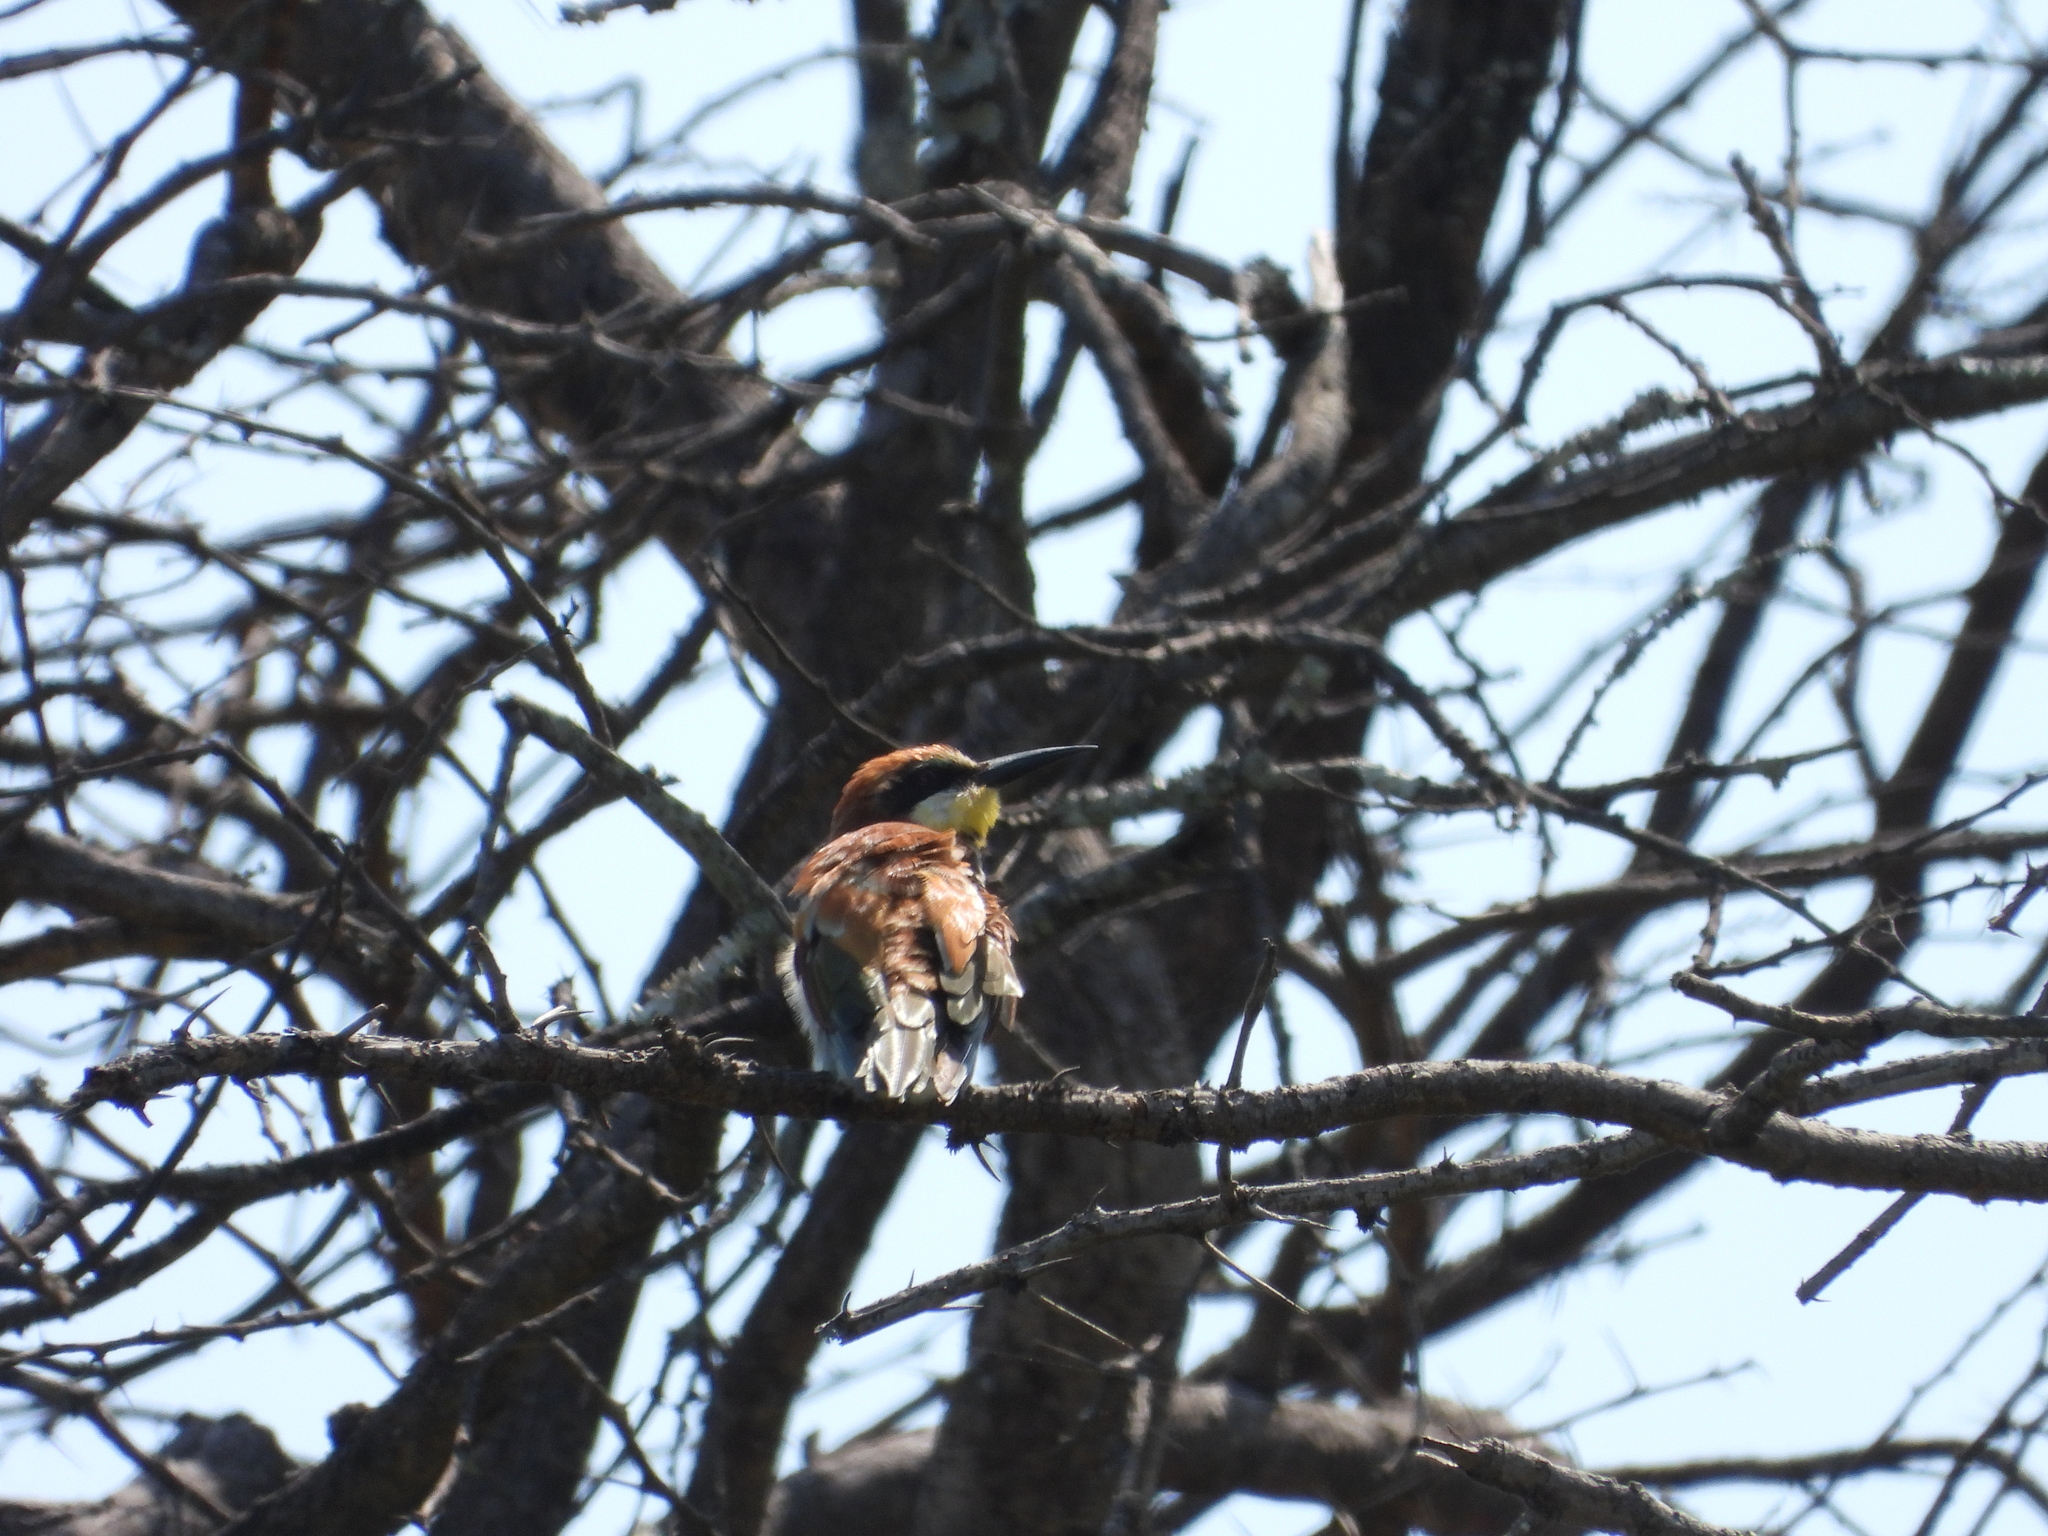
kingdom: Animalia
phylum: Chordata
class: Aves
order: Coraciiformes
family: Meropidae
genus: Merops
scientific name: Merops apiaster
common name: European bee-eater
